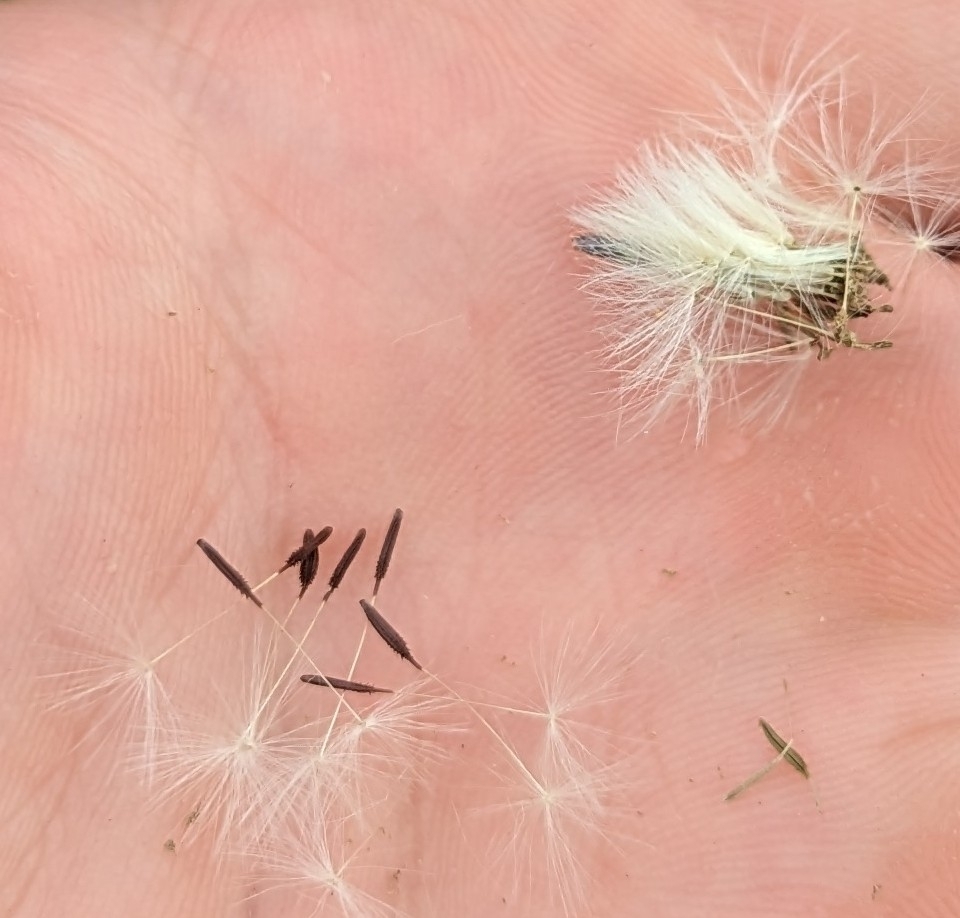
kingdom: Plantae
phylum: Tracheophyta
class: Magnoliopsida
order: Asterales
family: Asteraceae
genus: Taraxacum
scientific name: Taraxacum erythrospermum
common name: Rock dandelion
